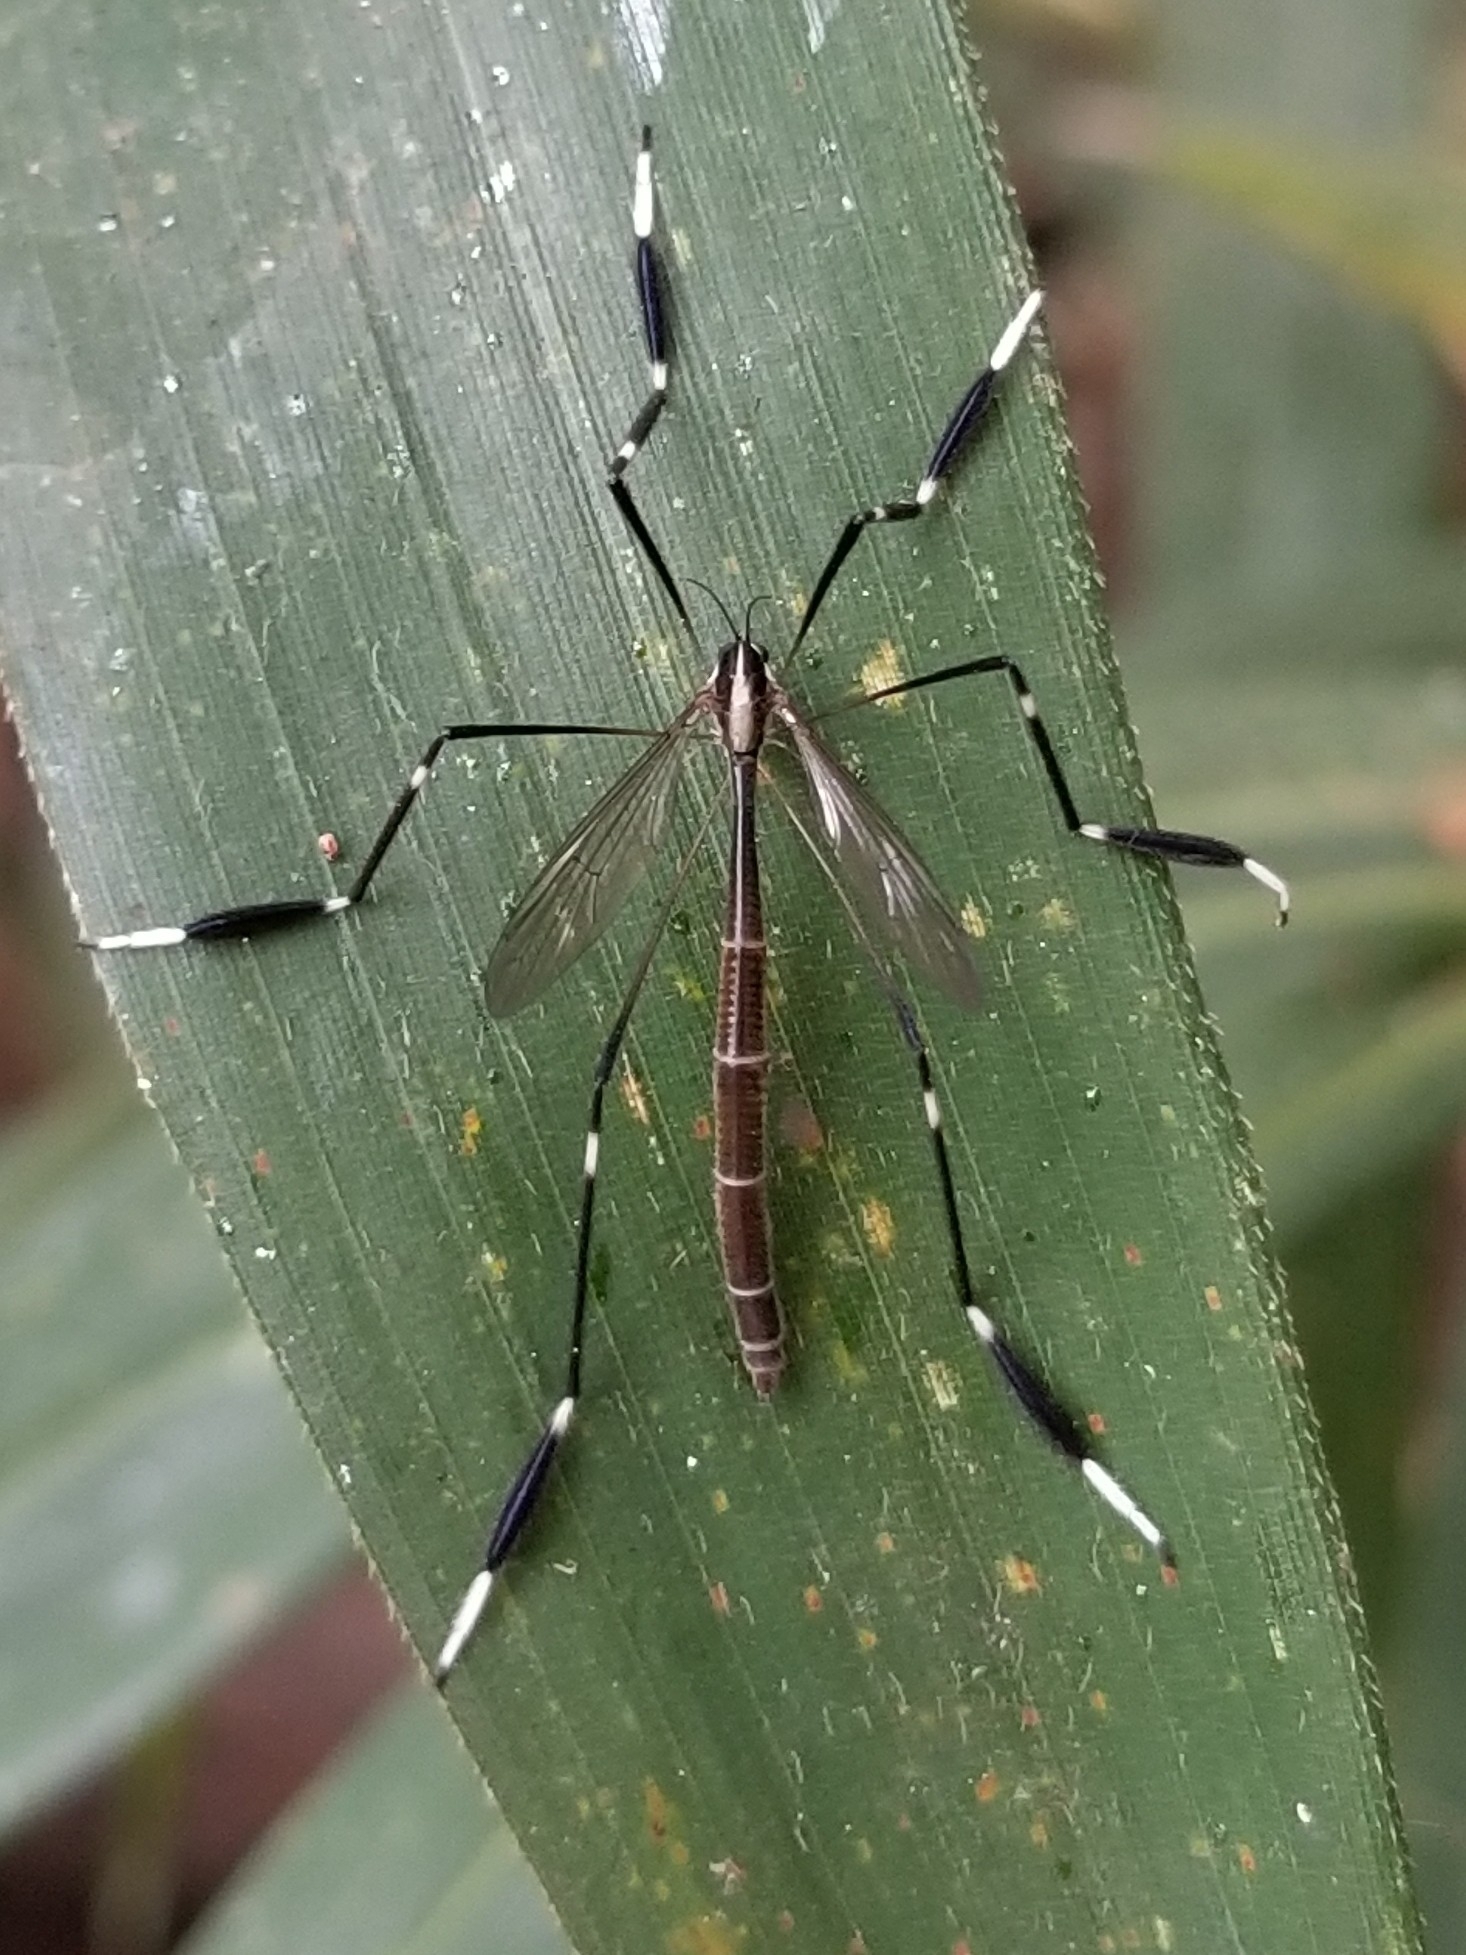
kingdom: Animalia
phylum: Arthropoda
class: Insecta
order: Diptera
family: Ptychopteridae
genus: Bittacomorpha
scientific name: Bittacomorpha clavipes
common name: Eastern phantom crane fly
